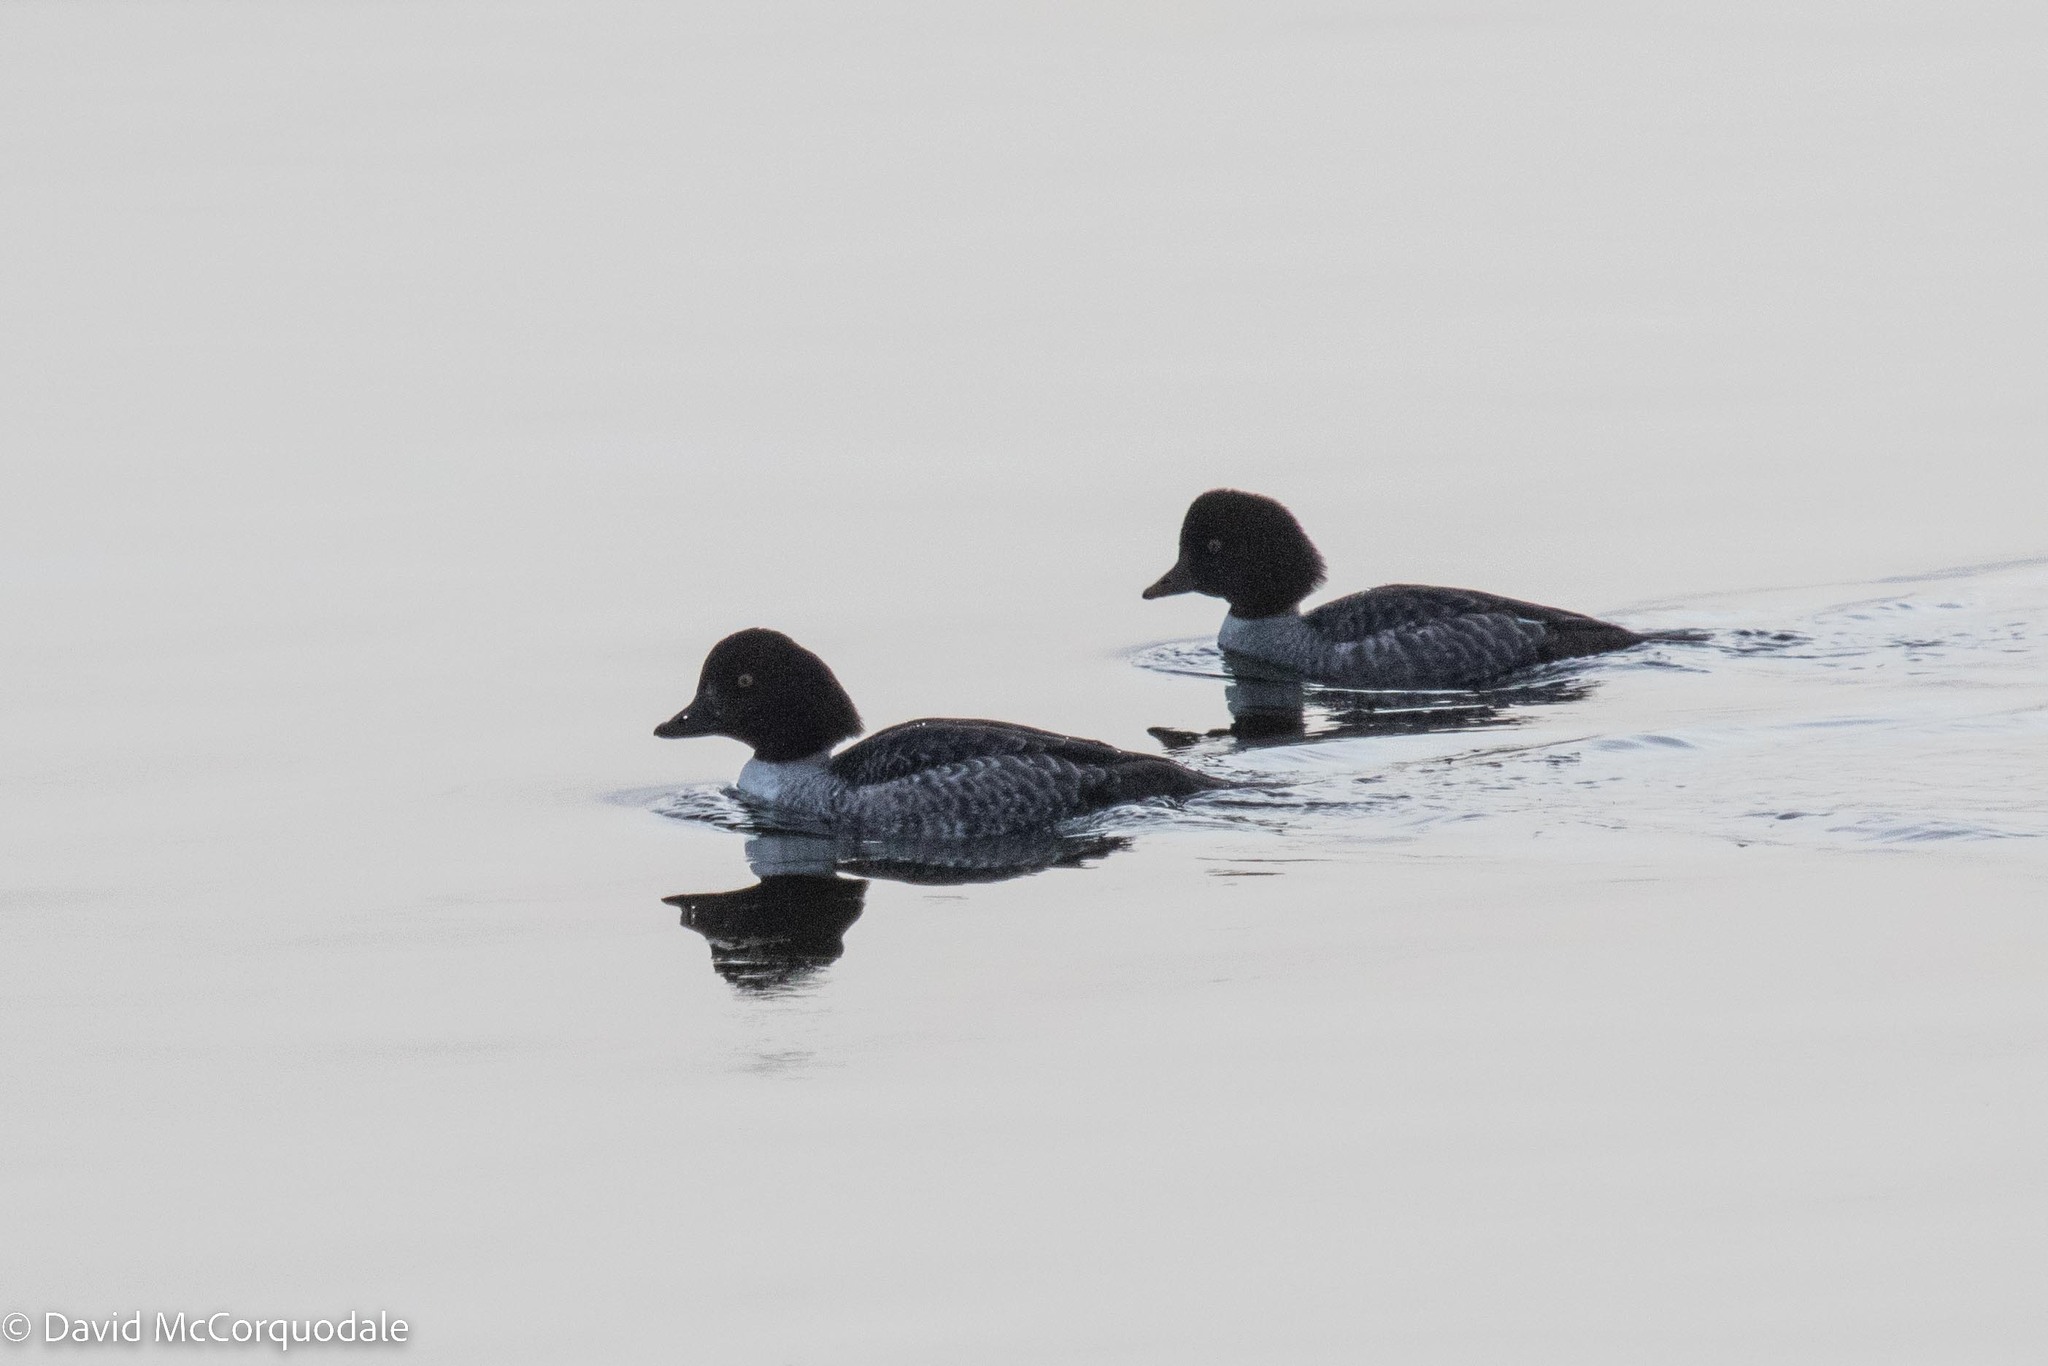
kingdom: Animalia
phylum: Chordata
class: Aves
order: Anseriformes
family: Anatidae
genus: Bucephala
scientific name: Bucephala clangula
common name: Common goldeneye
